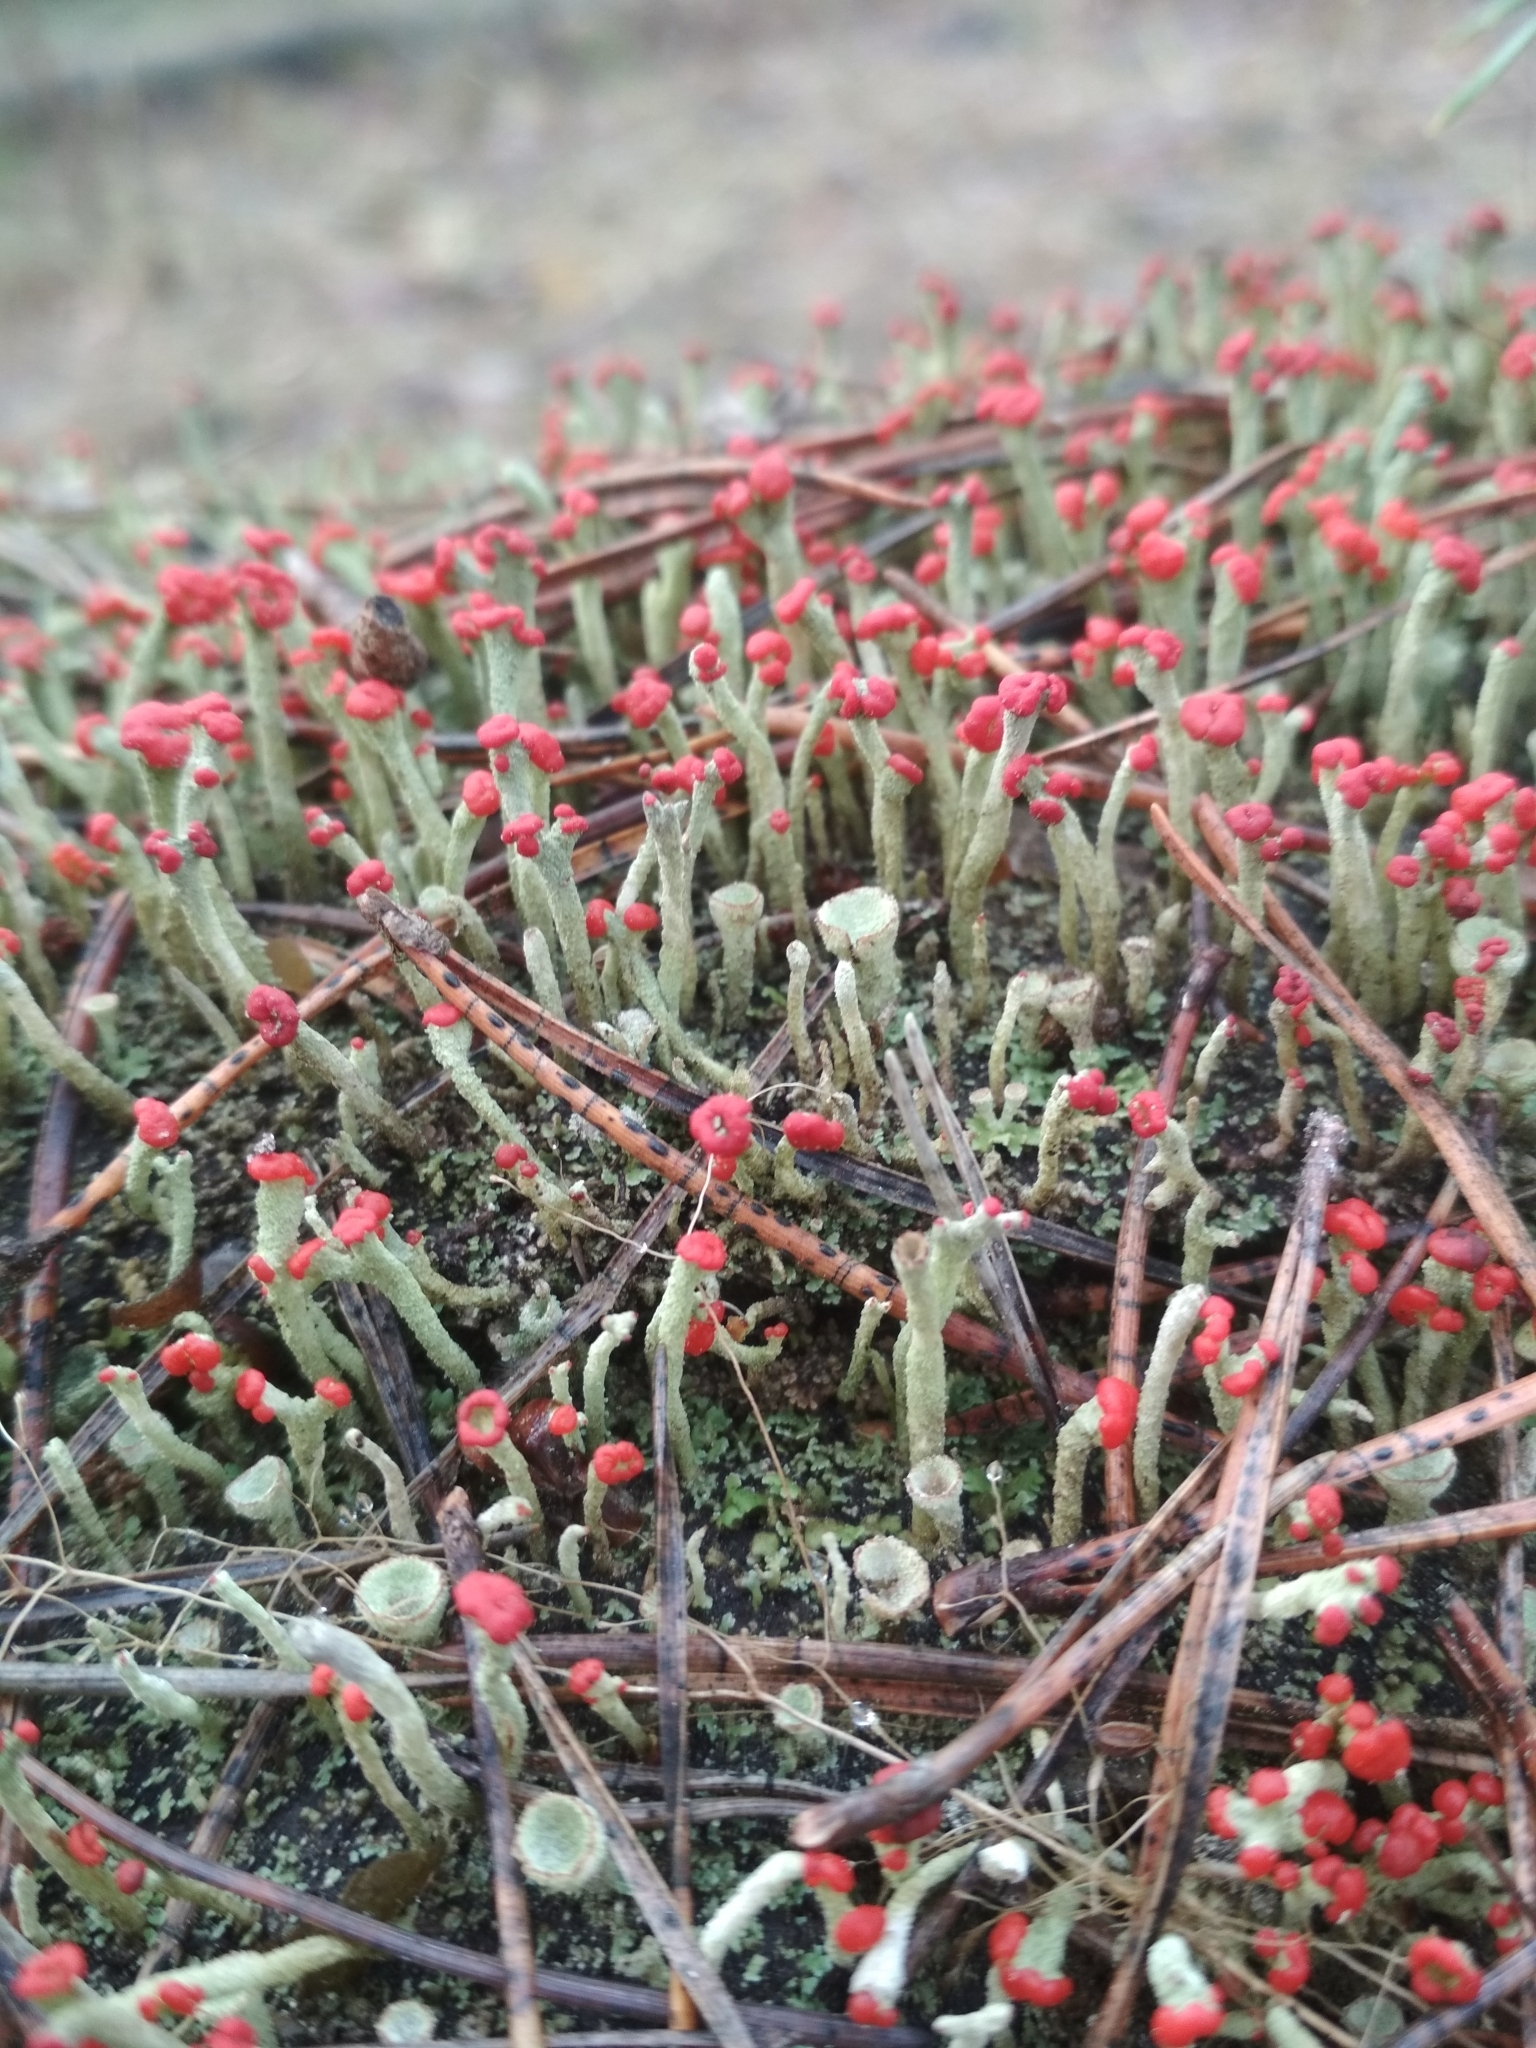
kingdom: Fungi
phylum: Ascomycota
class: Lecanoromycetes
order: Lecanorales
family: Cladoniaceae
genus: Cladonia
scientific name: Cladonia macilenta
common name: Lipstick powderhorn
